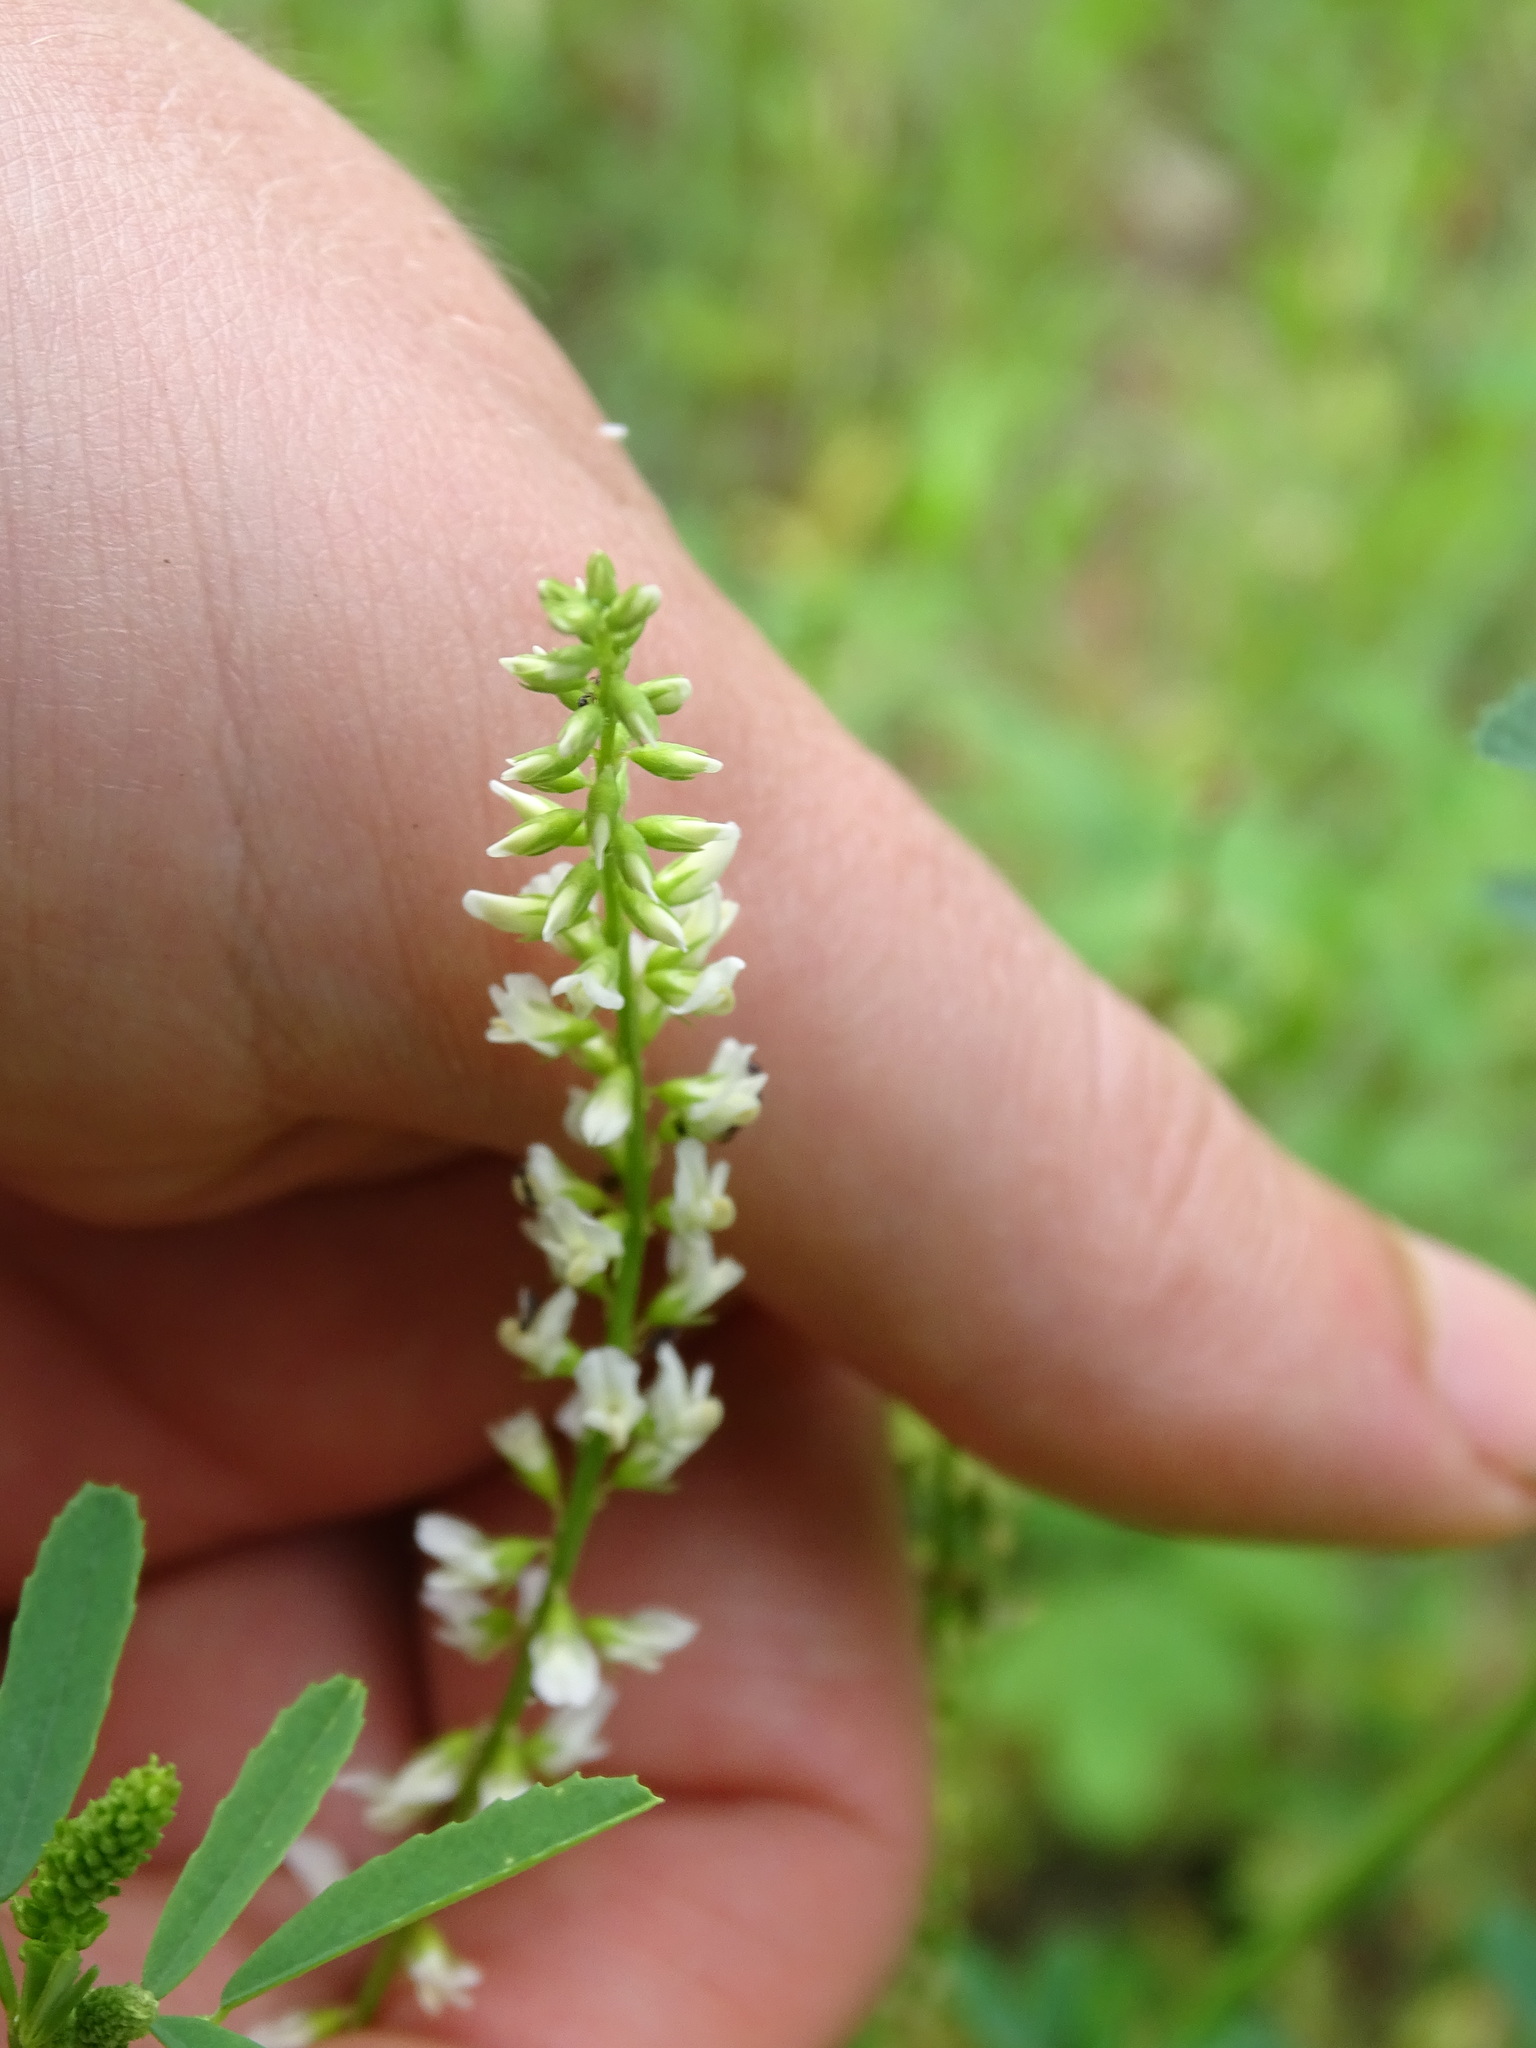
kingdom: Plantae
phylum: Tracheophyta
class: Magnoliopsida
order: Fabales
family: Fabaceae
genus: Melilotus
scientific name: Melilotus albus
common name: White melilot
